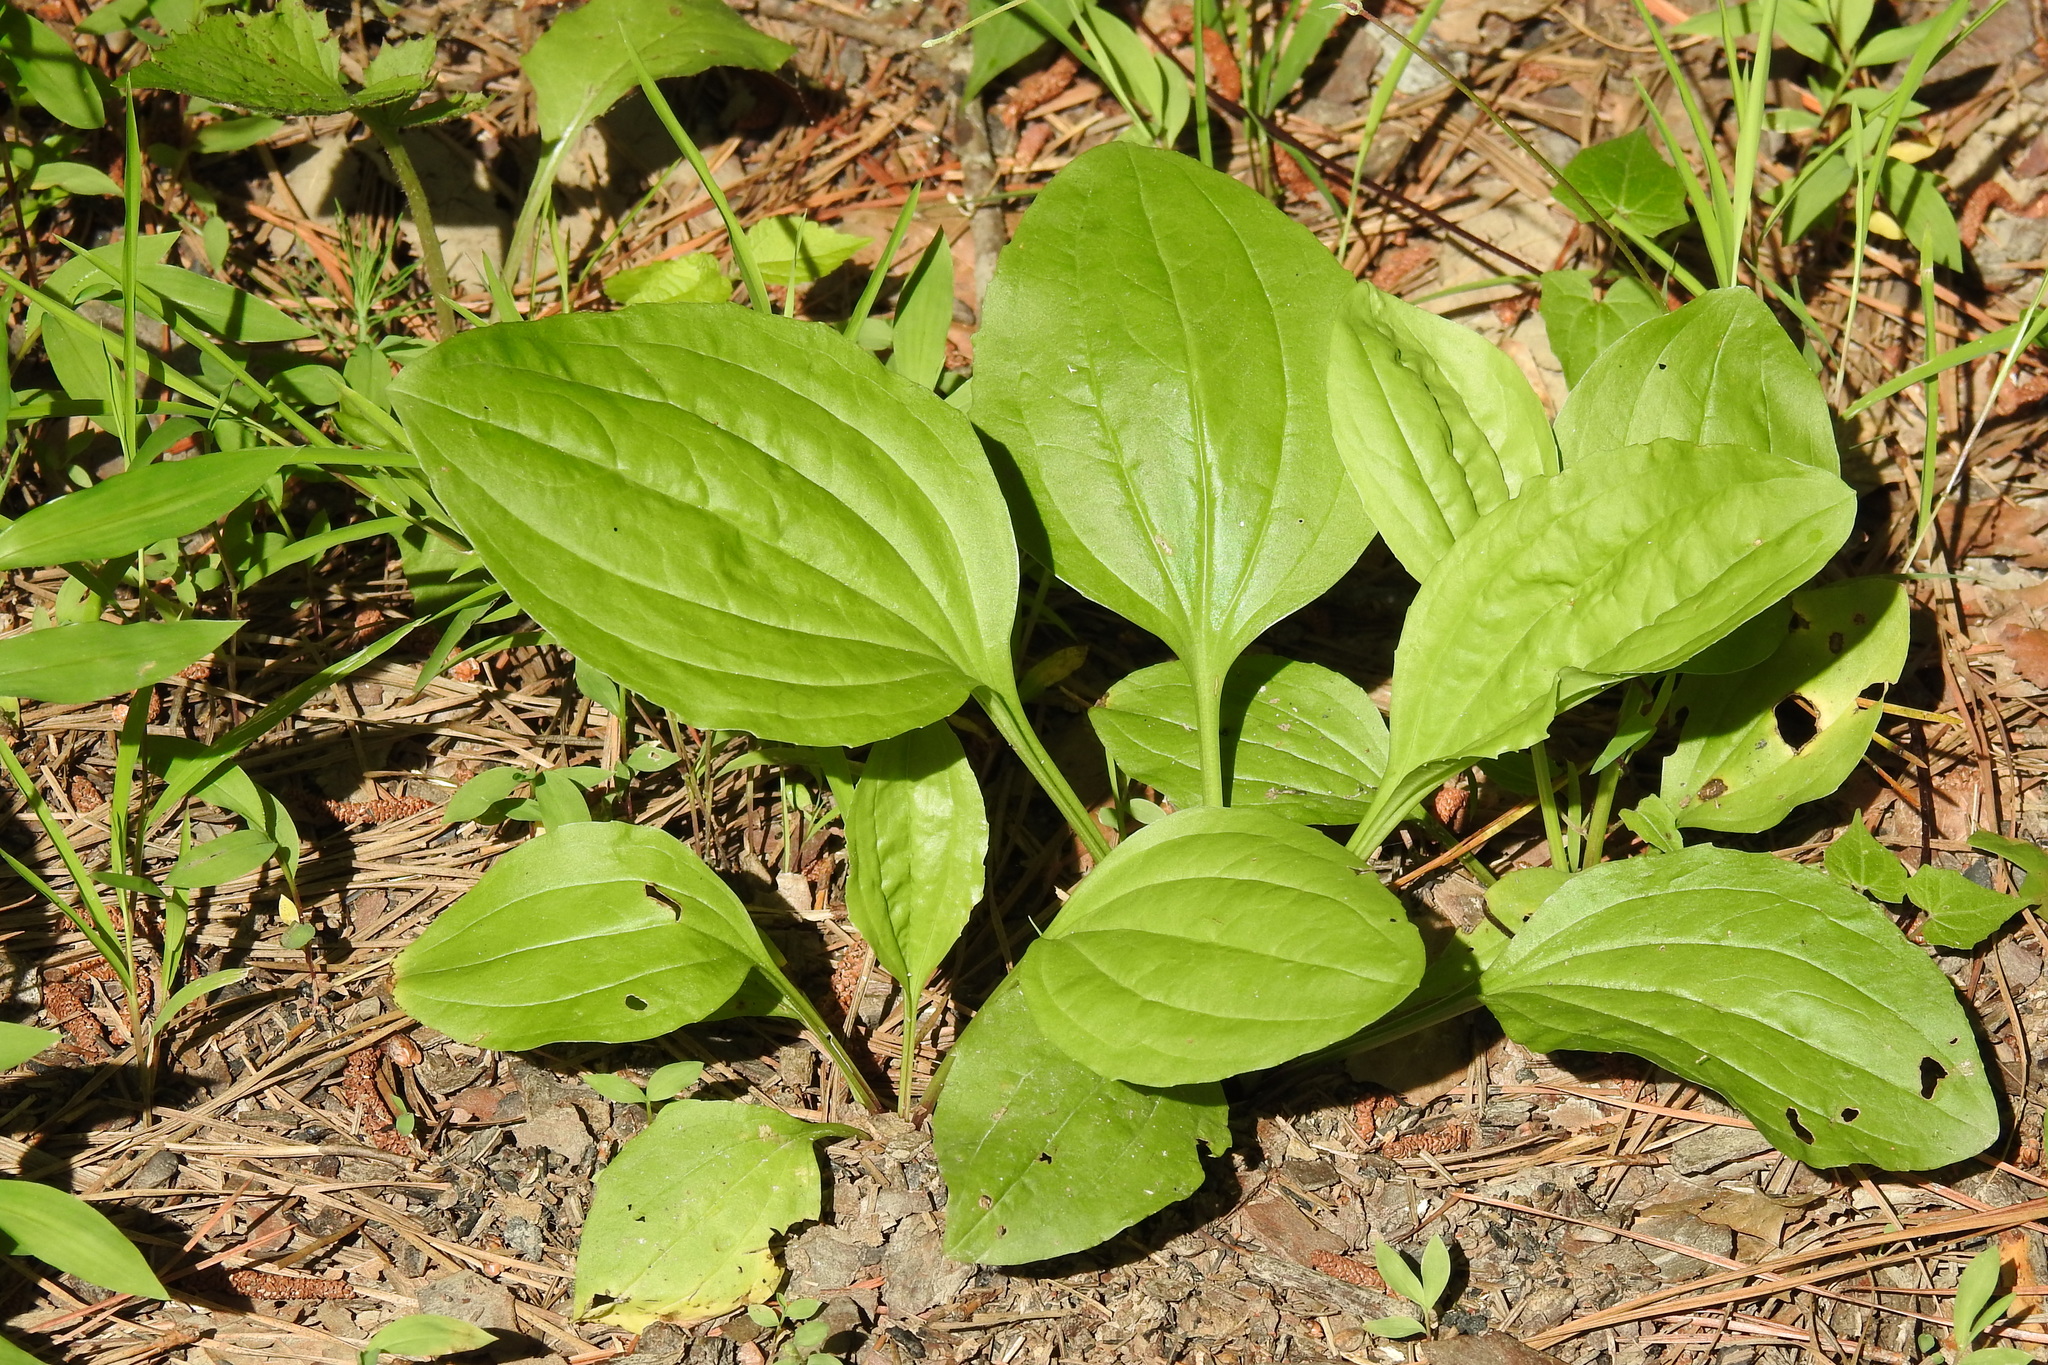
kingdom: Plantae
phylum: Tracheophyta
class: Magnoliopsida
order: Lamiales
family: Plantaginaceae
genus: Plantago
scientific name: Plantago rugelii
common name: American plantain
